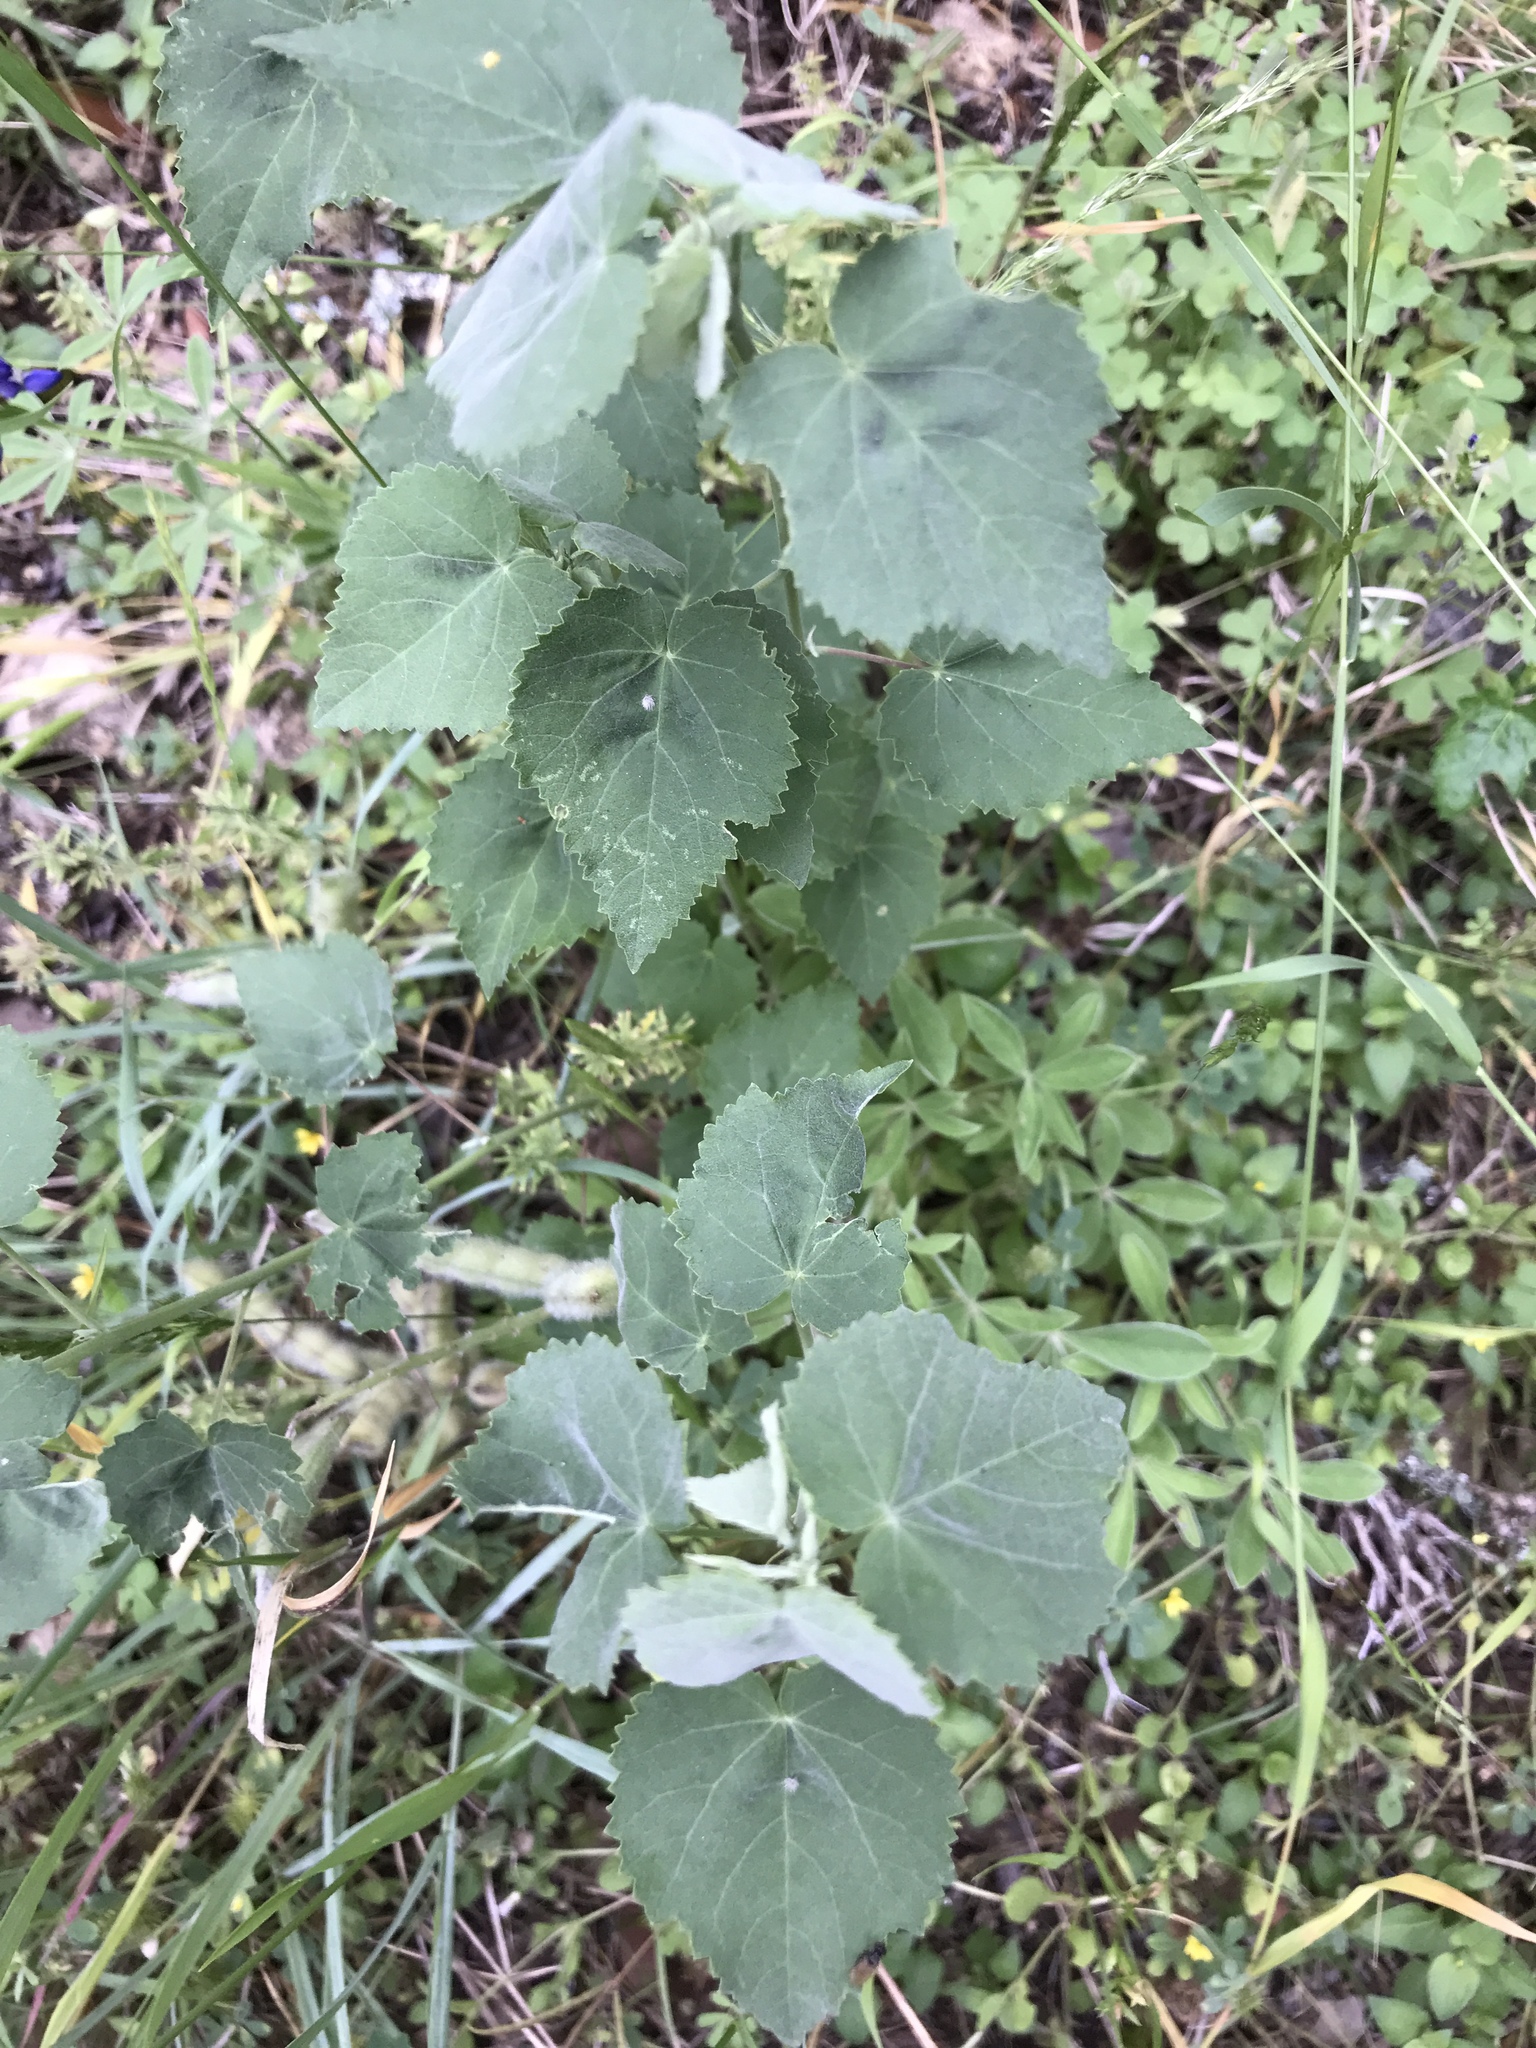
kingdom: Plantae
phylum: Tracheophyta
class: Magnoliopsida
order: Malvales
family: Malvaceae
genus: Abutilon
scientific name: Abutilon fruticosum
